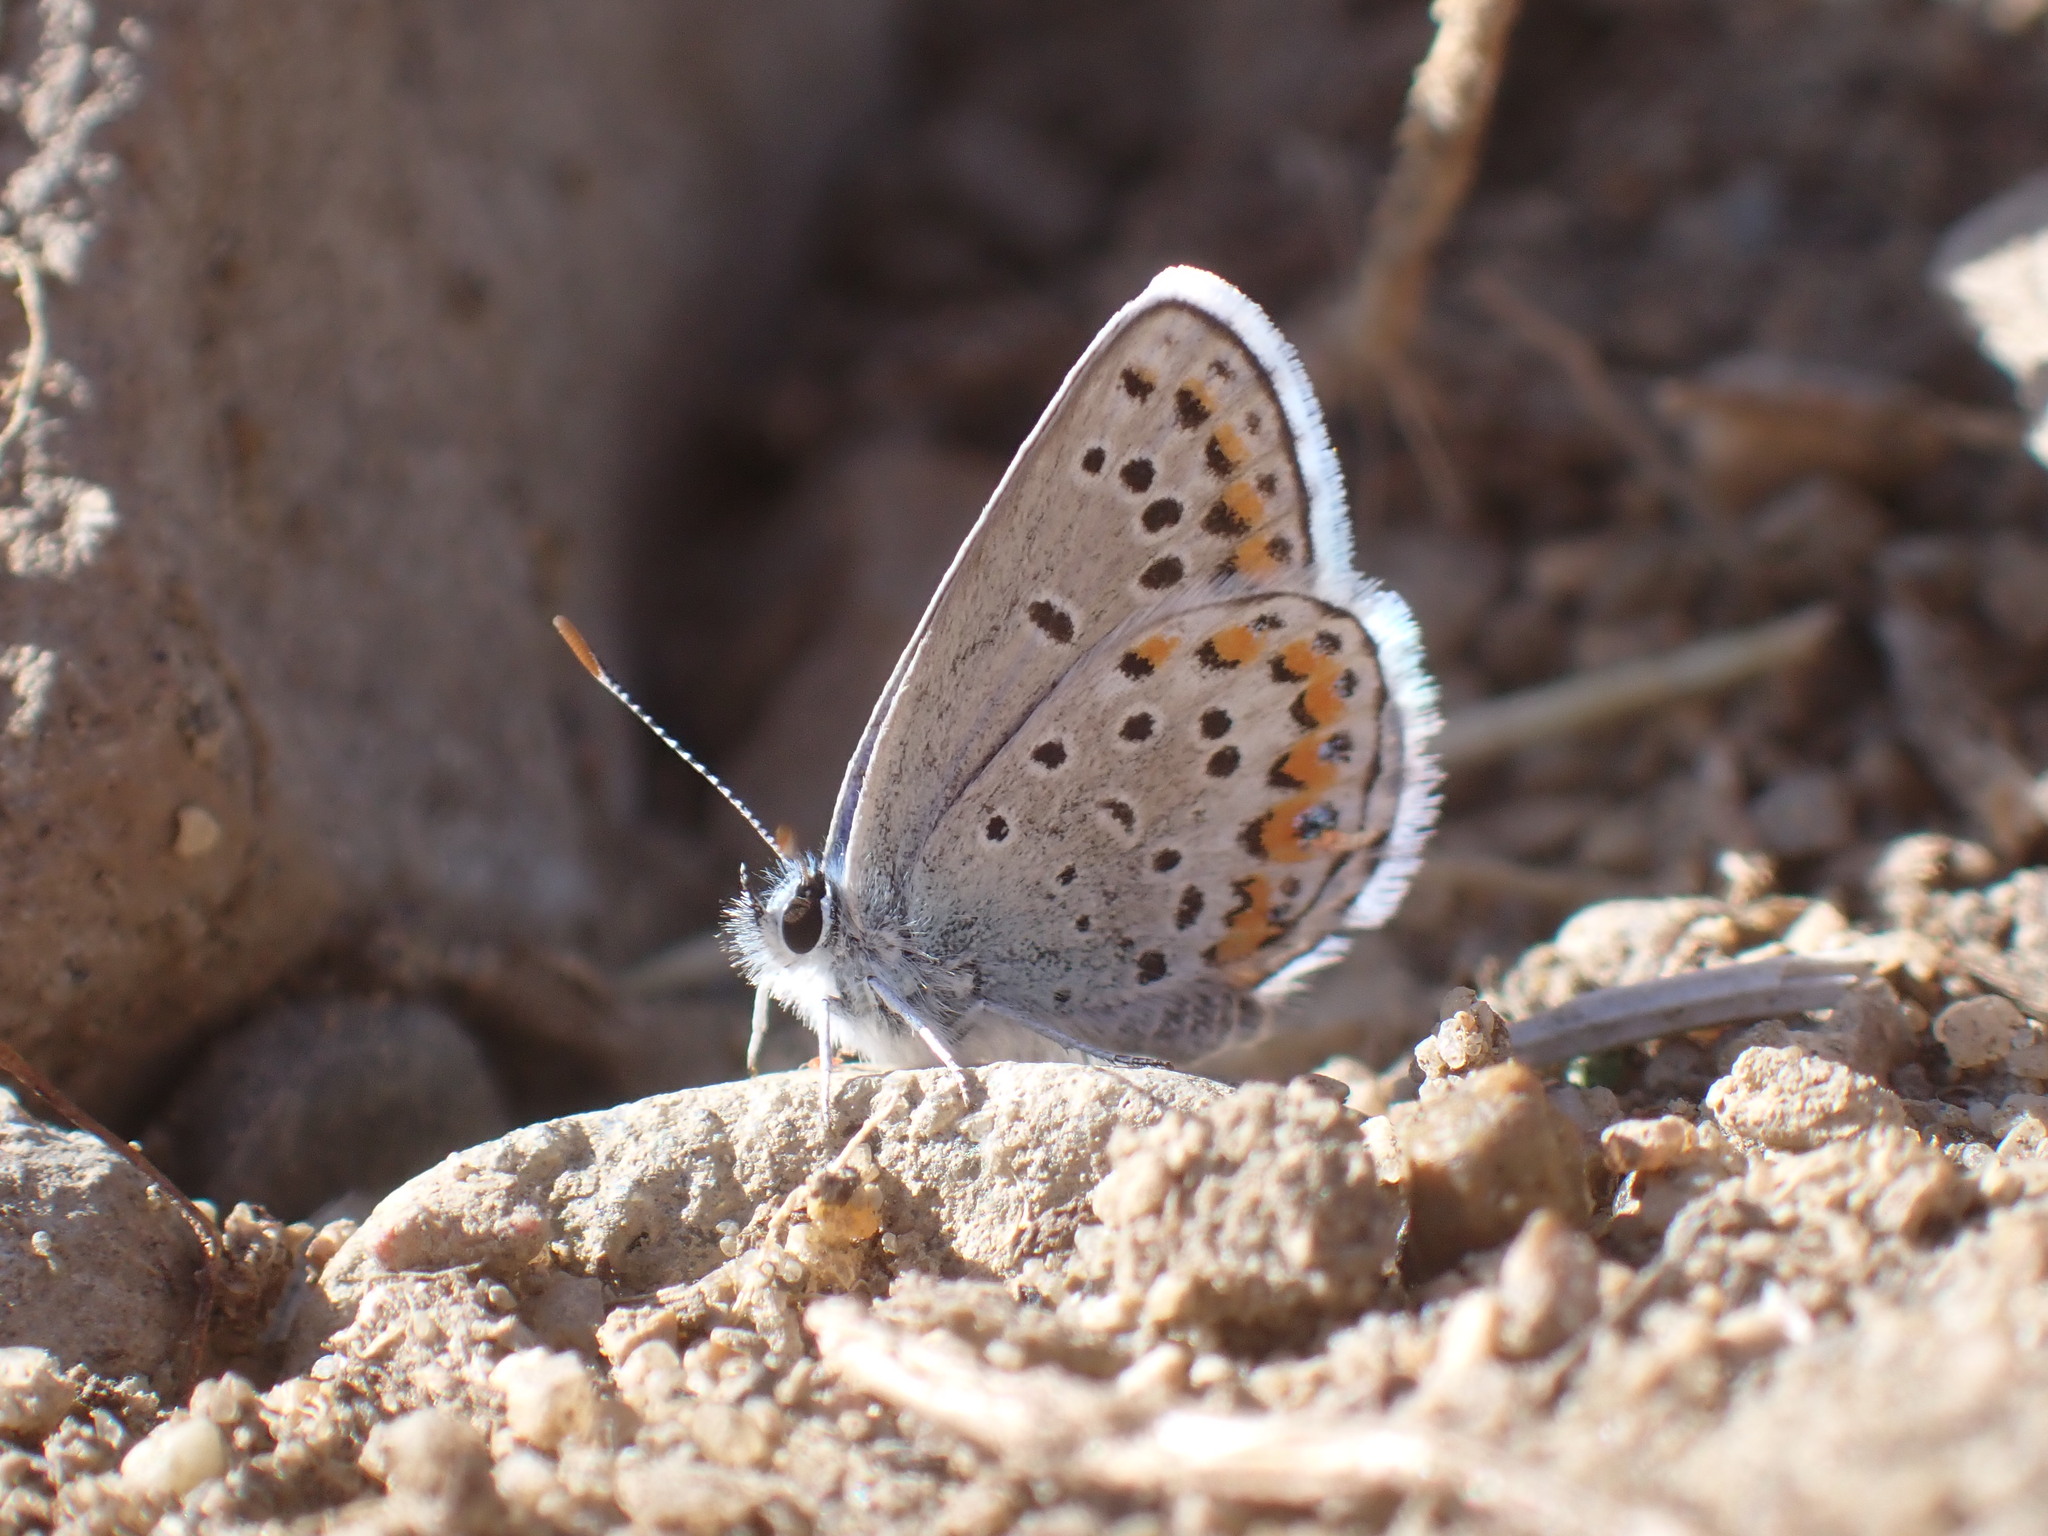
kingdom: Animalia
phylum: Arthropoda
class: Insecta
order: Lepidoptera
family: Lycaenidae
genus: Lycaeides
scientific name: Lycaeides melissa
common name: Melissa blue
